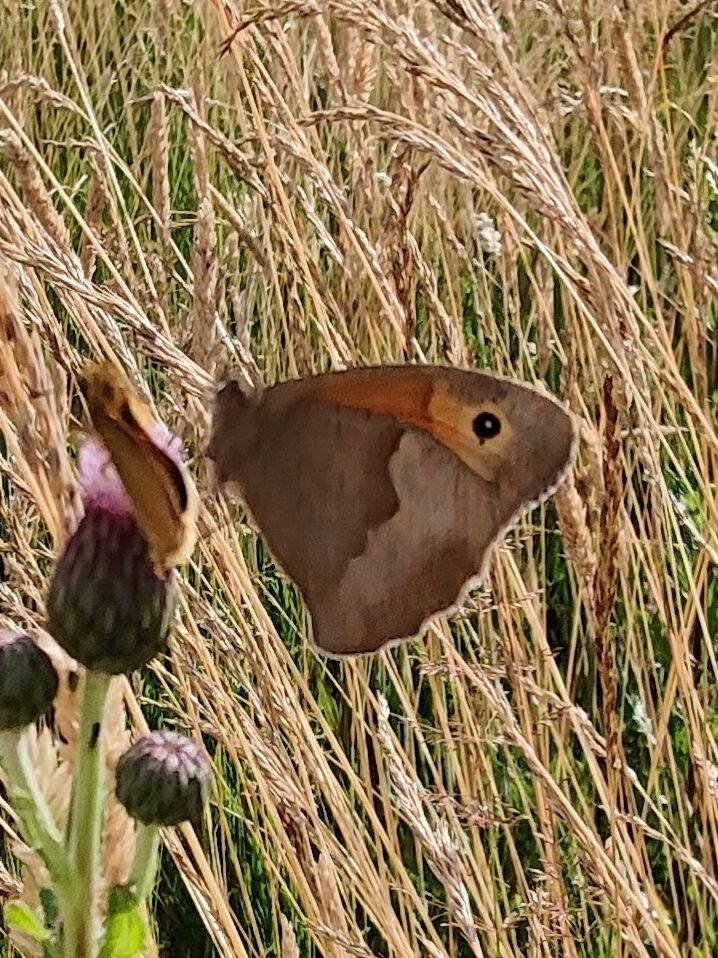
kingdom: Animalia
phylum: Arthropoda
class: Insecta
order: Lepidoptera
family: Nymphalidae
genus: Maniola
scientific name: Maniola jurtina
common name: Meadow brown
